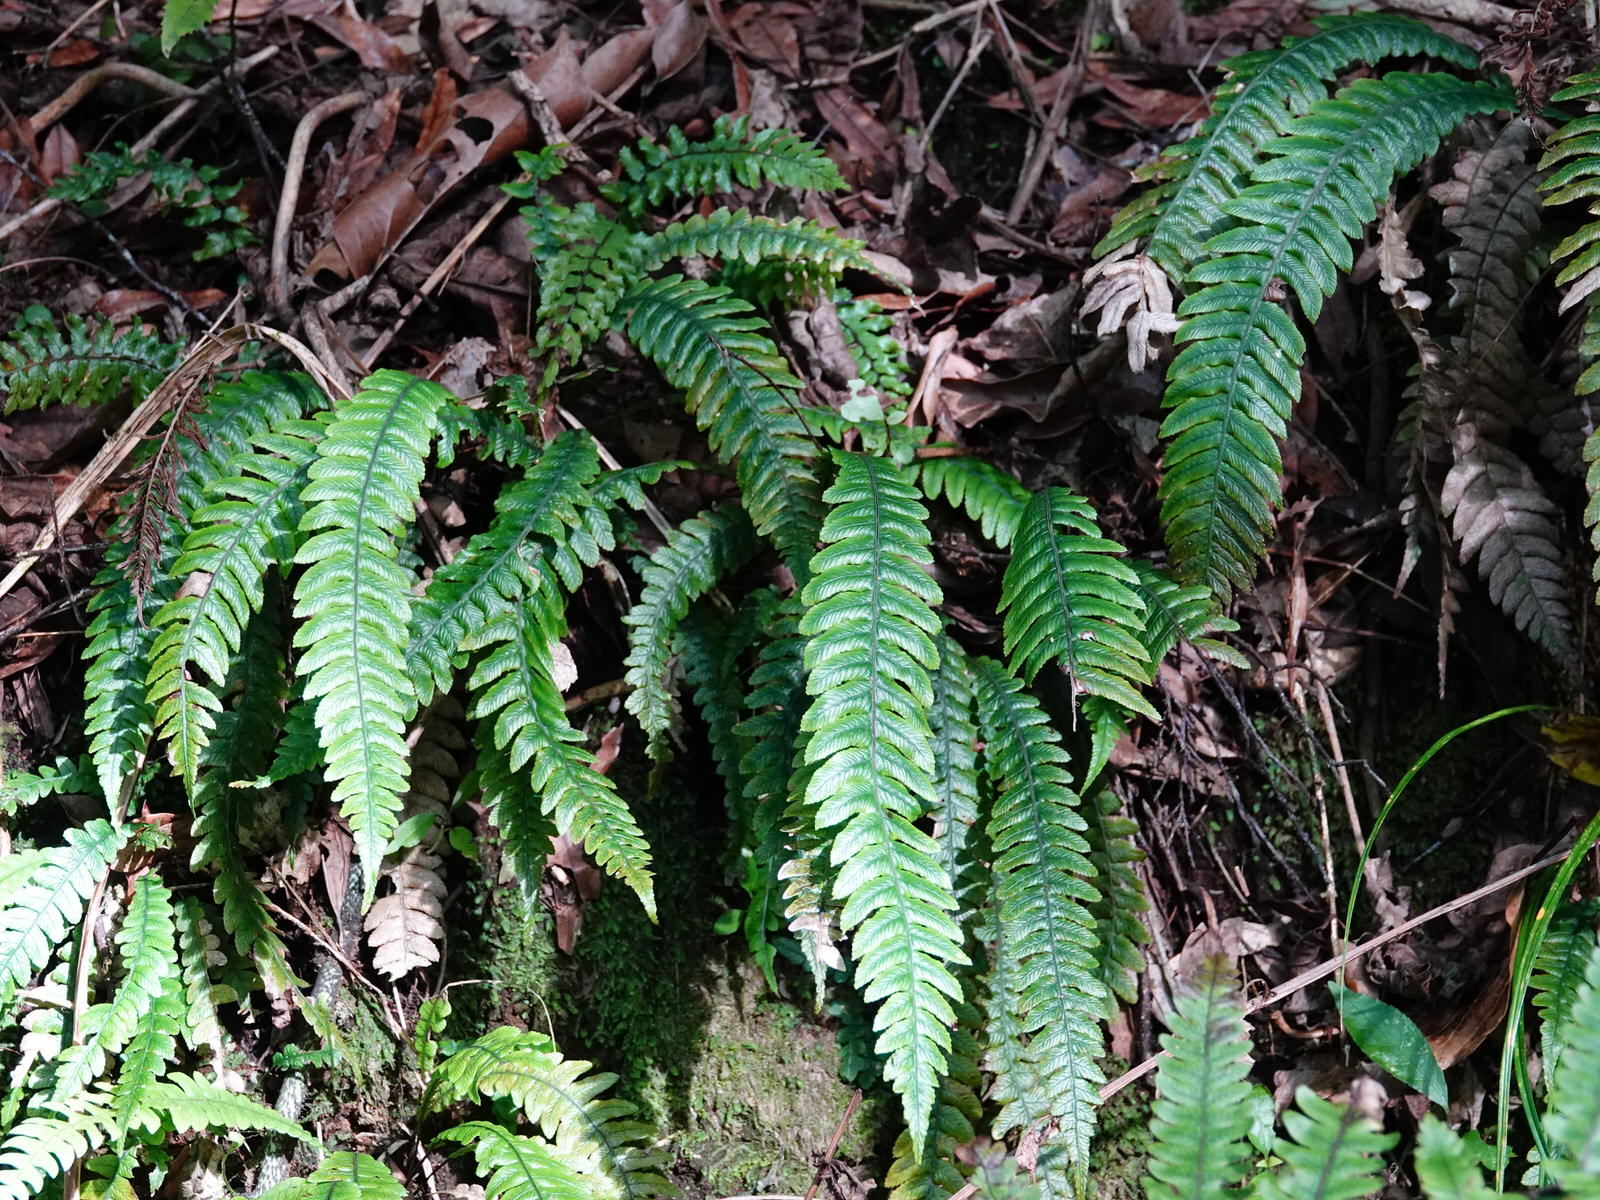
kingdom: Plantae
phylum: Tracheophyta
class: Polypodiopsida
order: Polypodiales
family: Blechnaceae
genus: Austroblechnum
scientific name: Austroblechnum lanceolatum
